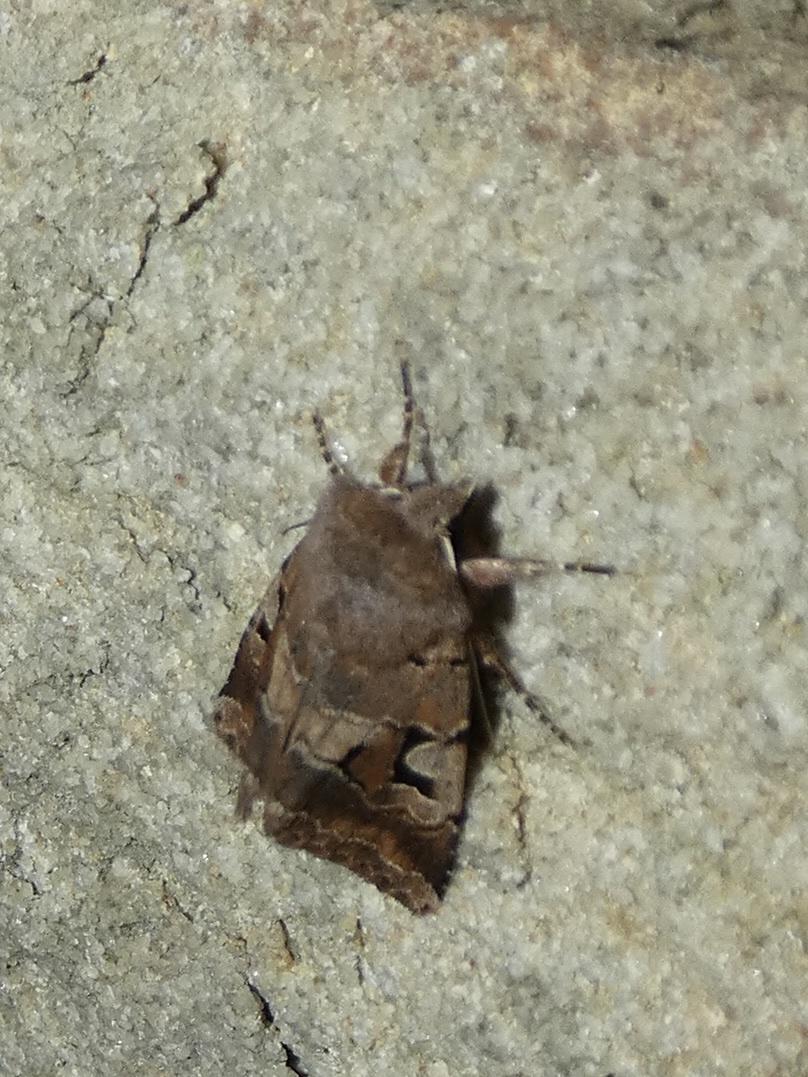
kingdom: Animalia
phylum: Arthropoda
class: Insecta
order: Lepidoptera
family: Noctuidae
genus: Orthosia
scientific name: Orthosia gothica
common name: Hebrew character
